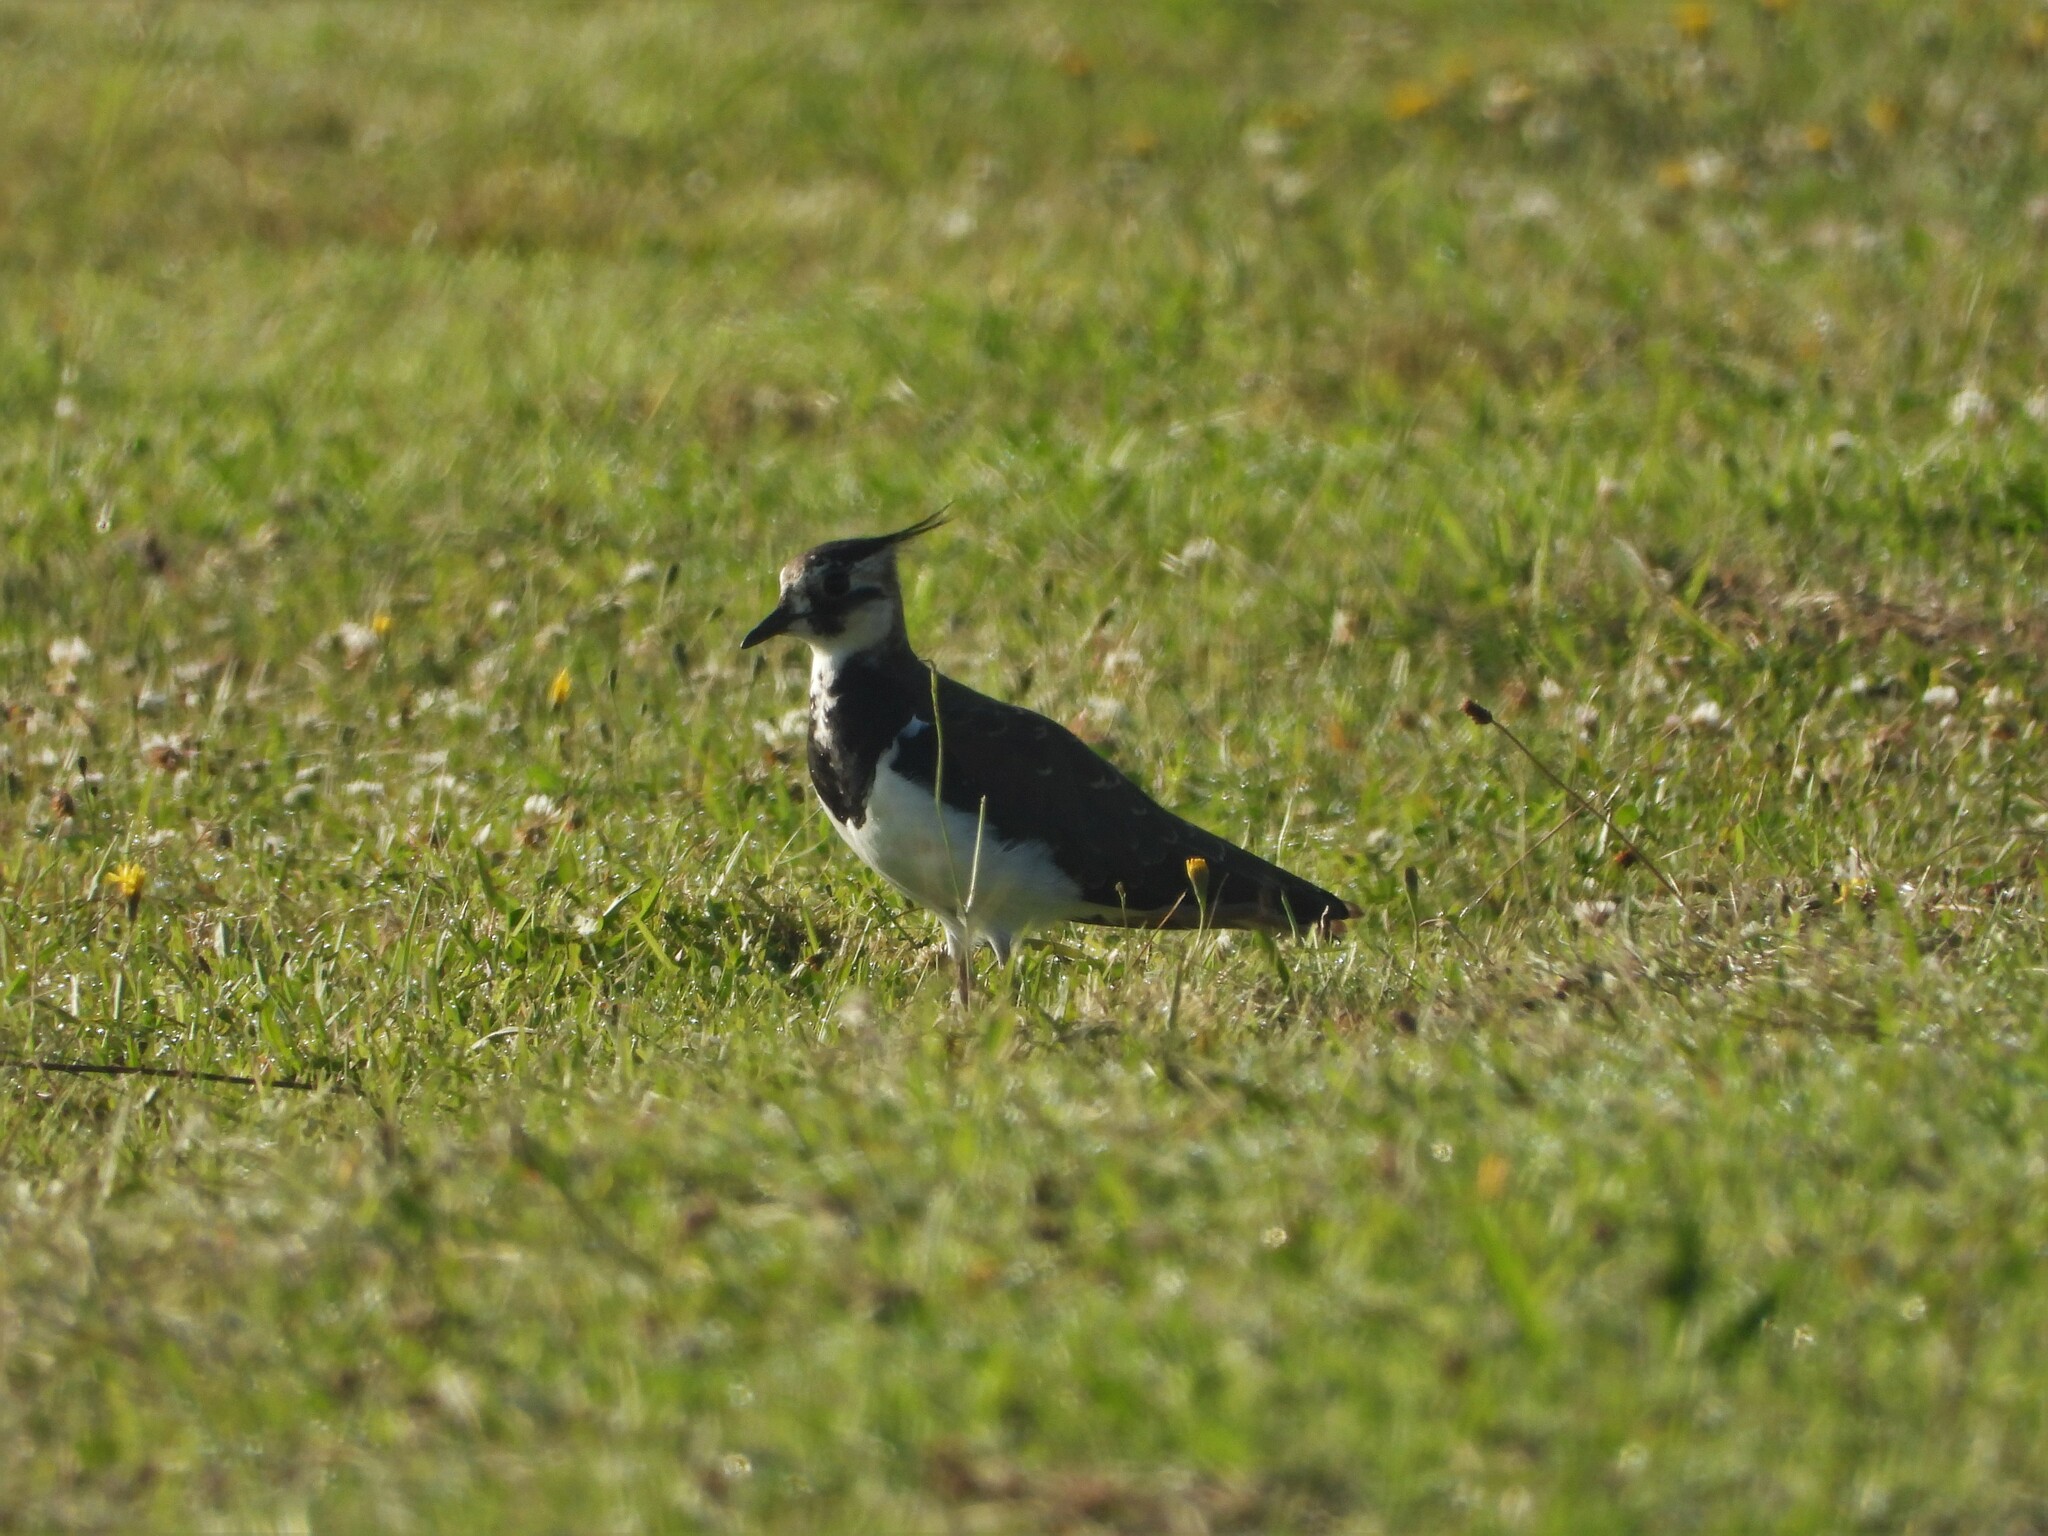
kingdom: Animalia
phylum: Chordata
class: Aves
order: Charadriiformes
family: Charadriidae
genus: Vanellus
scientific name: Vanellus vanellus
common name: Northern lapwing
